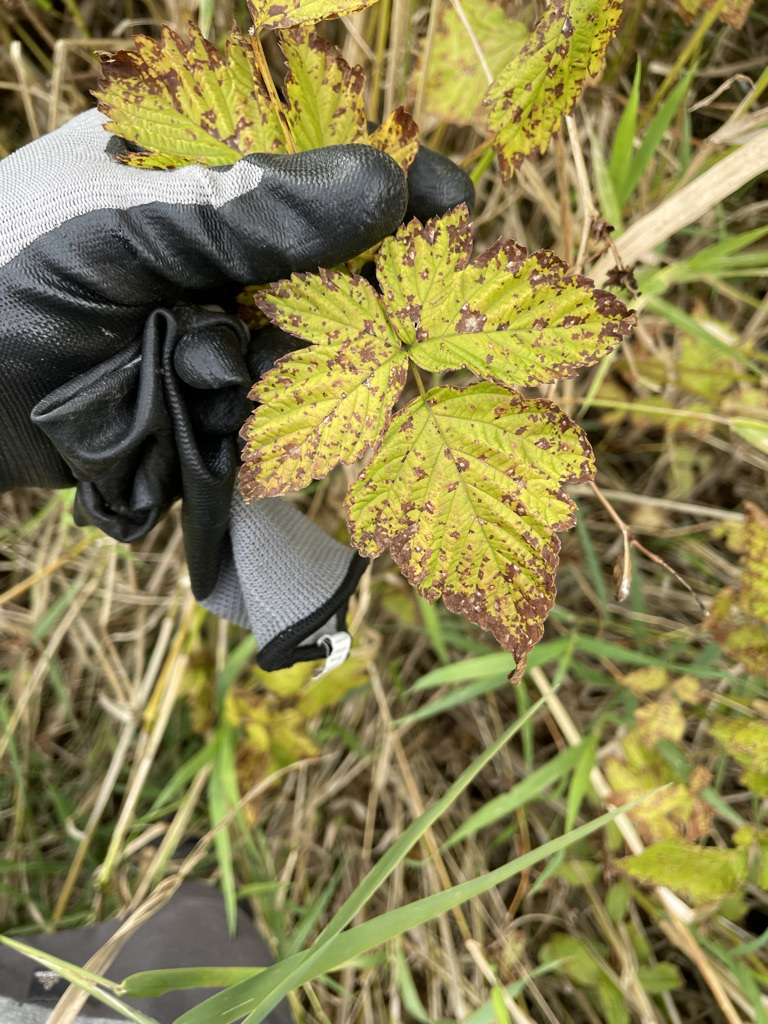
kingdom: Plantae
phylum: Tracheophyta
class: Magnoliopsida
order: Rosales
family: Rosaceae
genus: Rubus
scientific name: Rubus spectabilis
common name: Salmonberry
